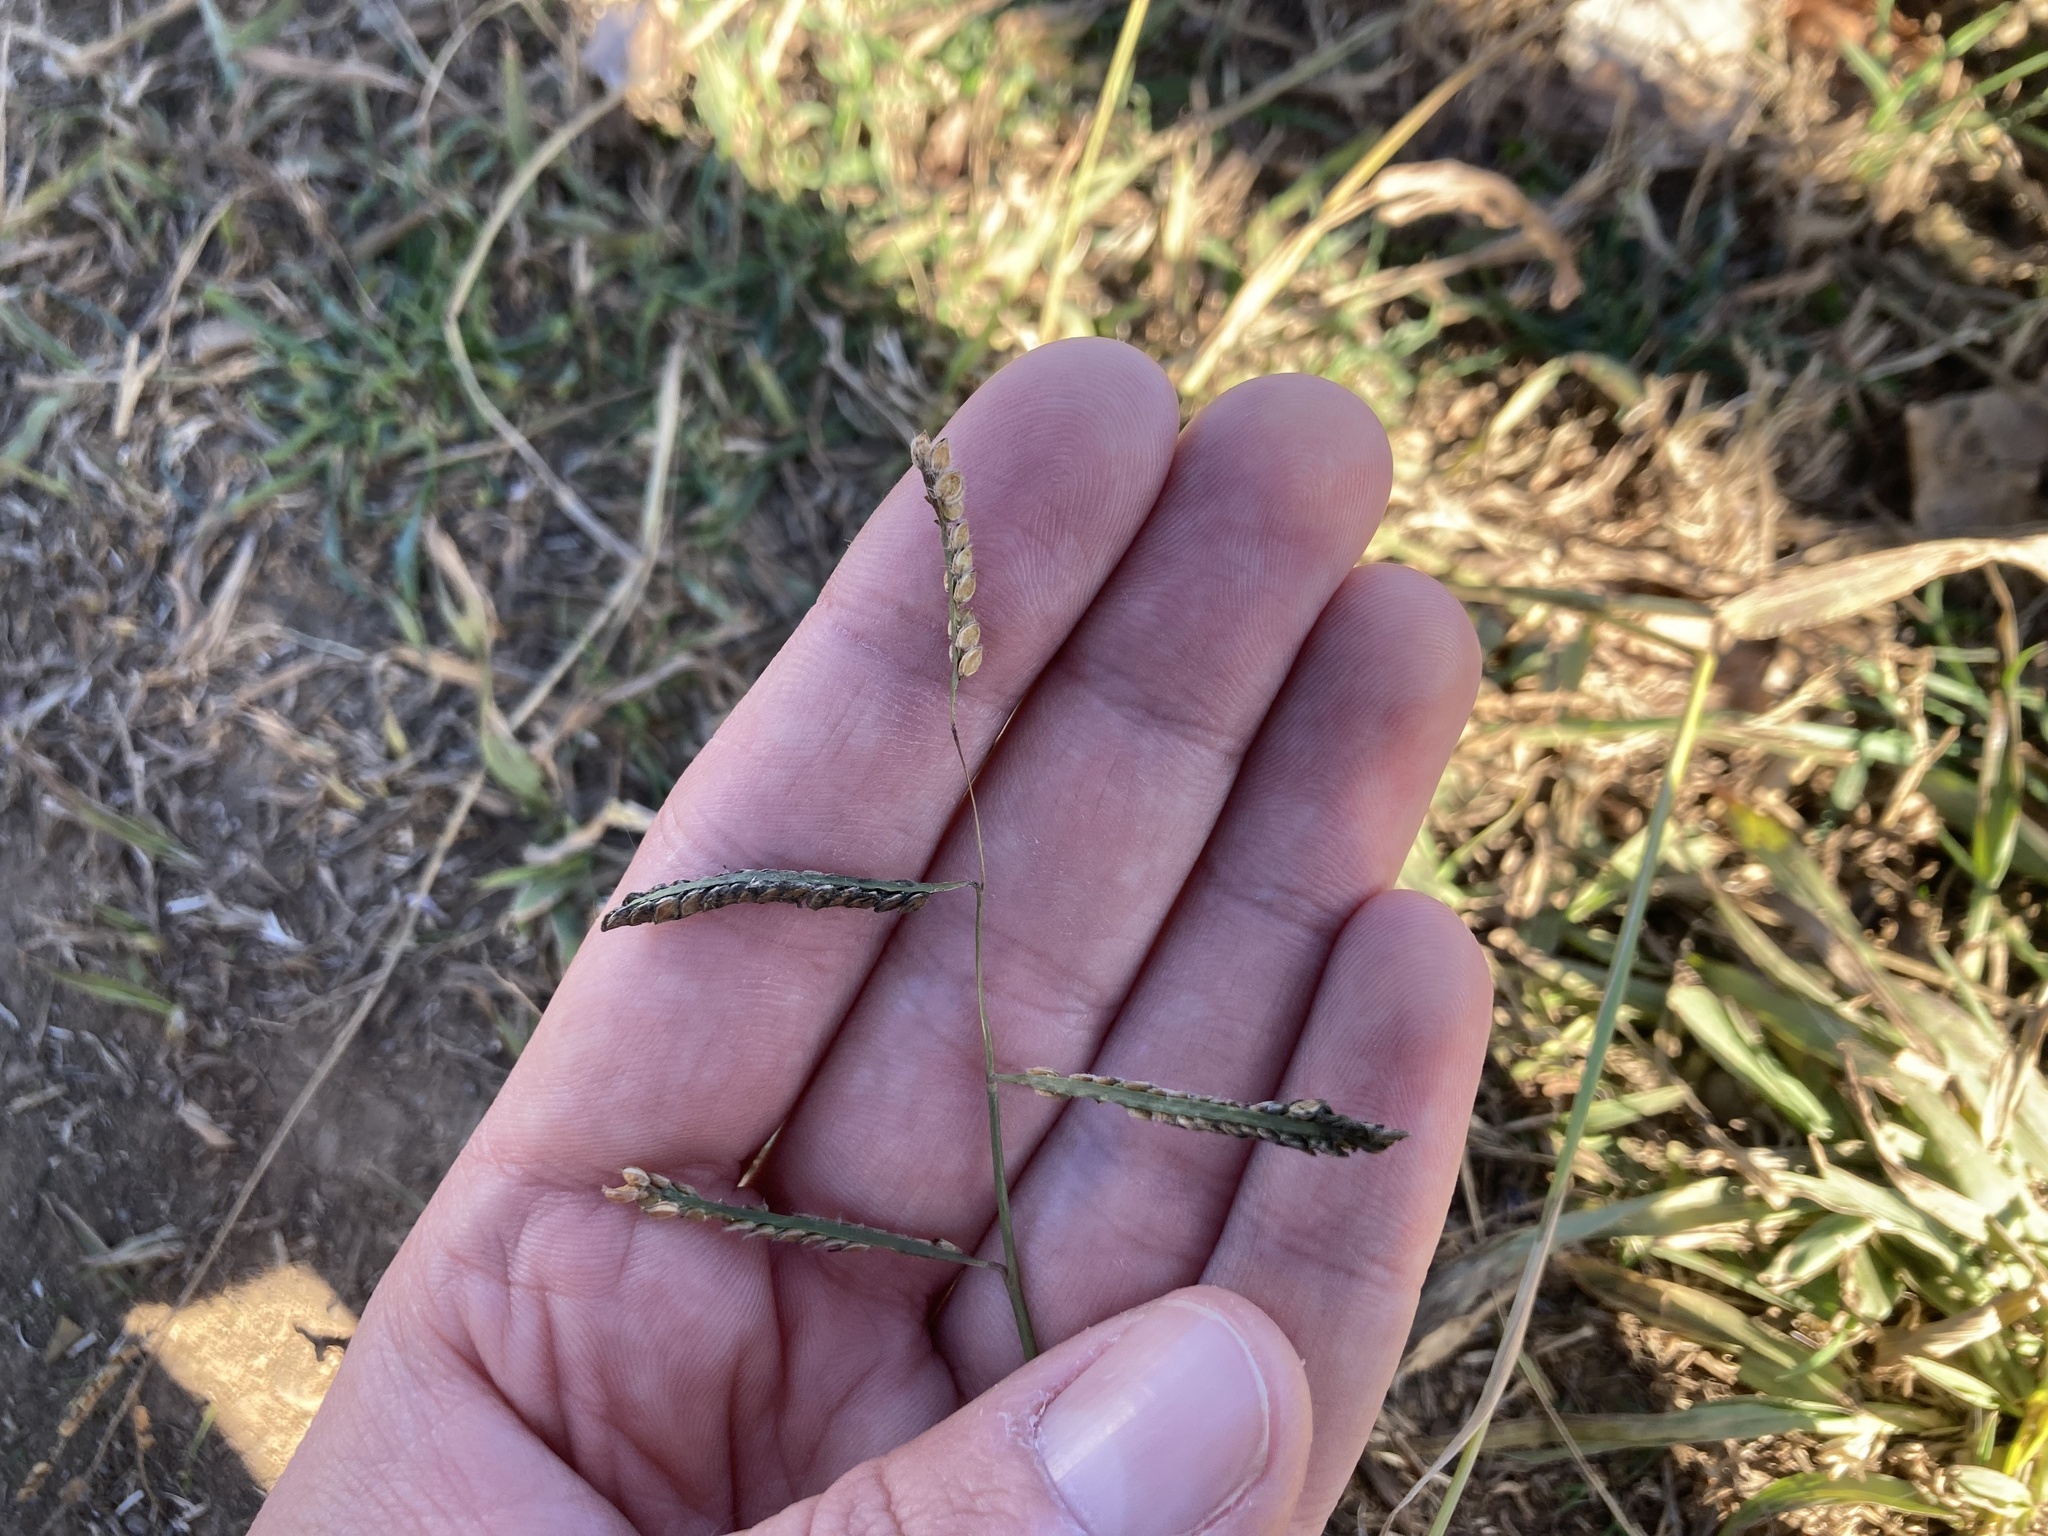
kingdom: Plantae
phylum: Tracheophyta
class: Liliopsida
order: Poales
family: Poaceae
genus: Paspalum
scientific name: Paspalum dilatatum
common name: Dallisgrass
